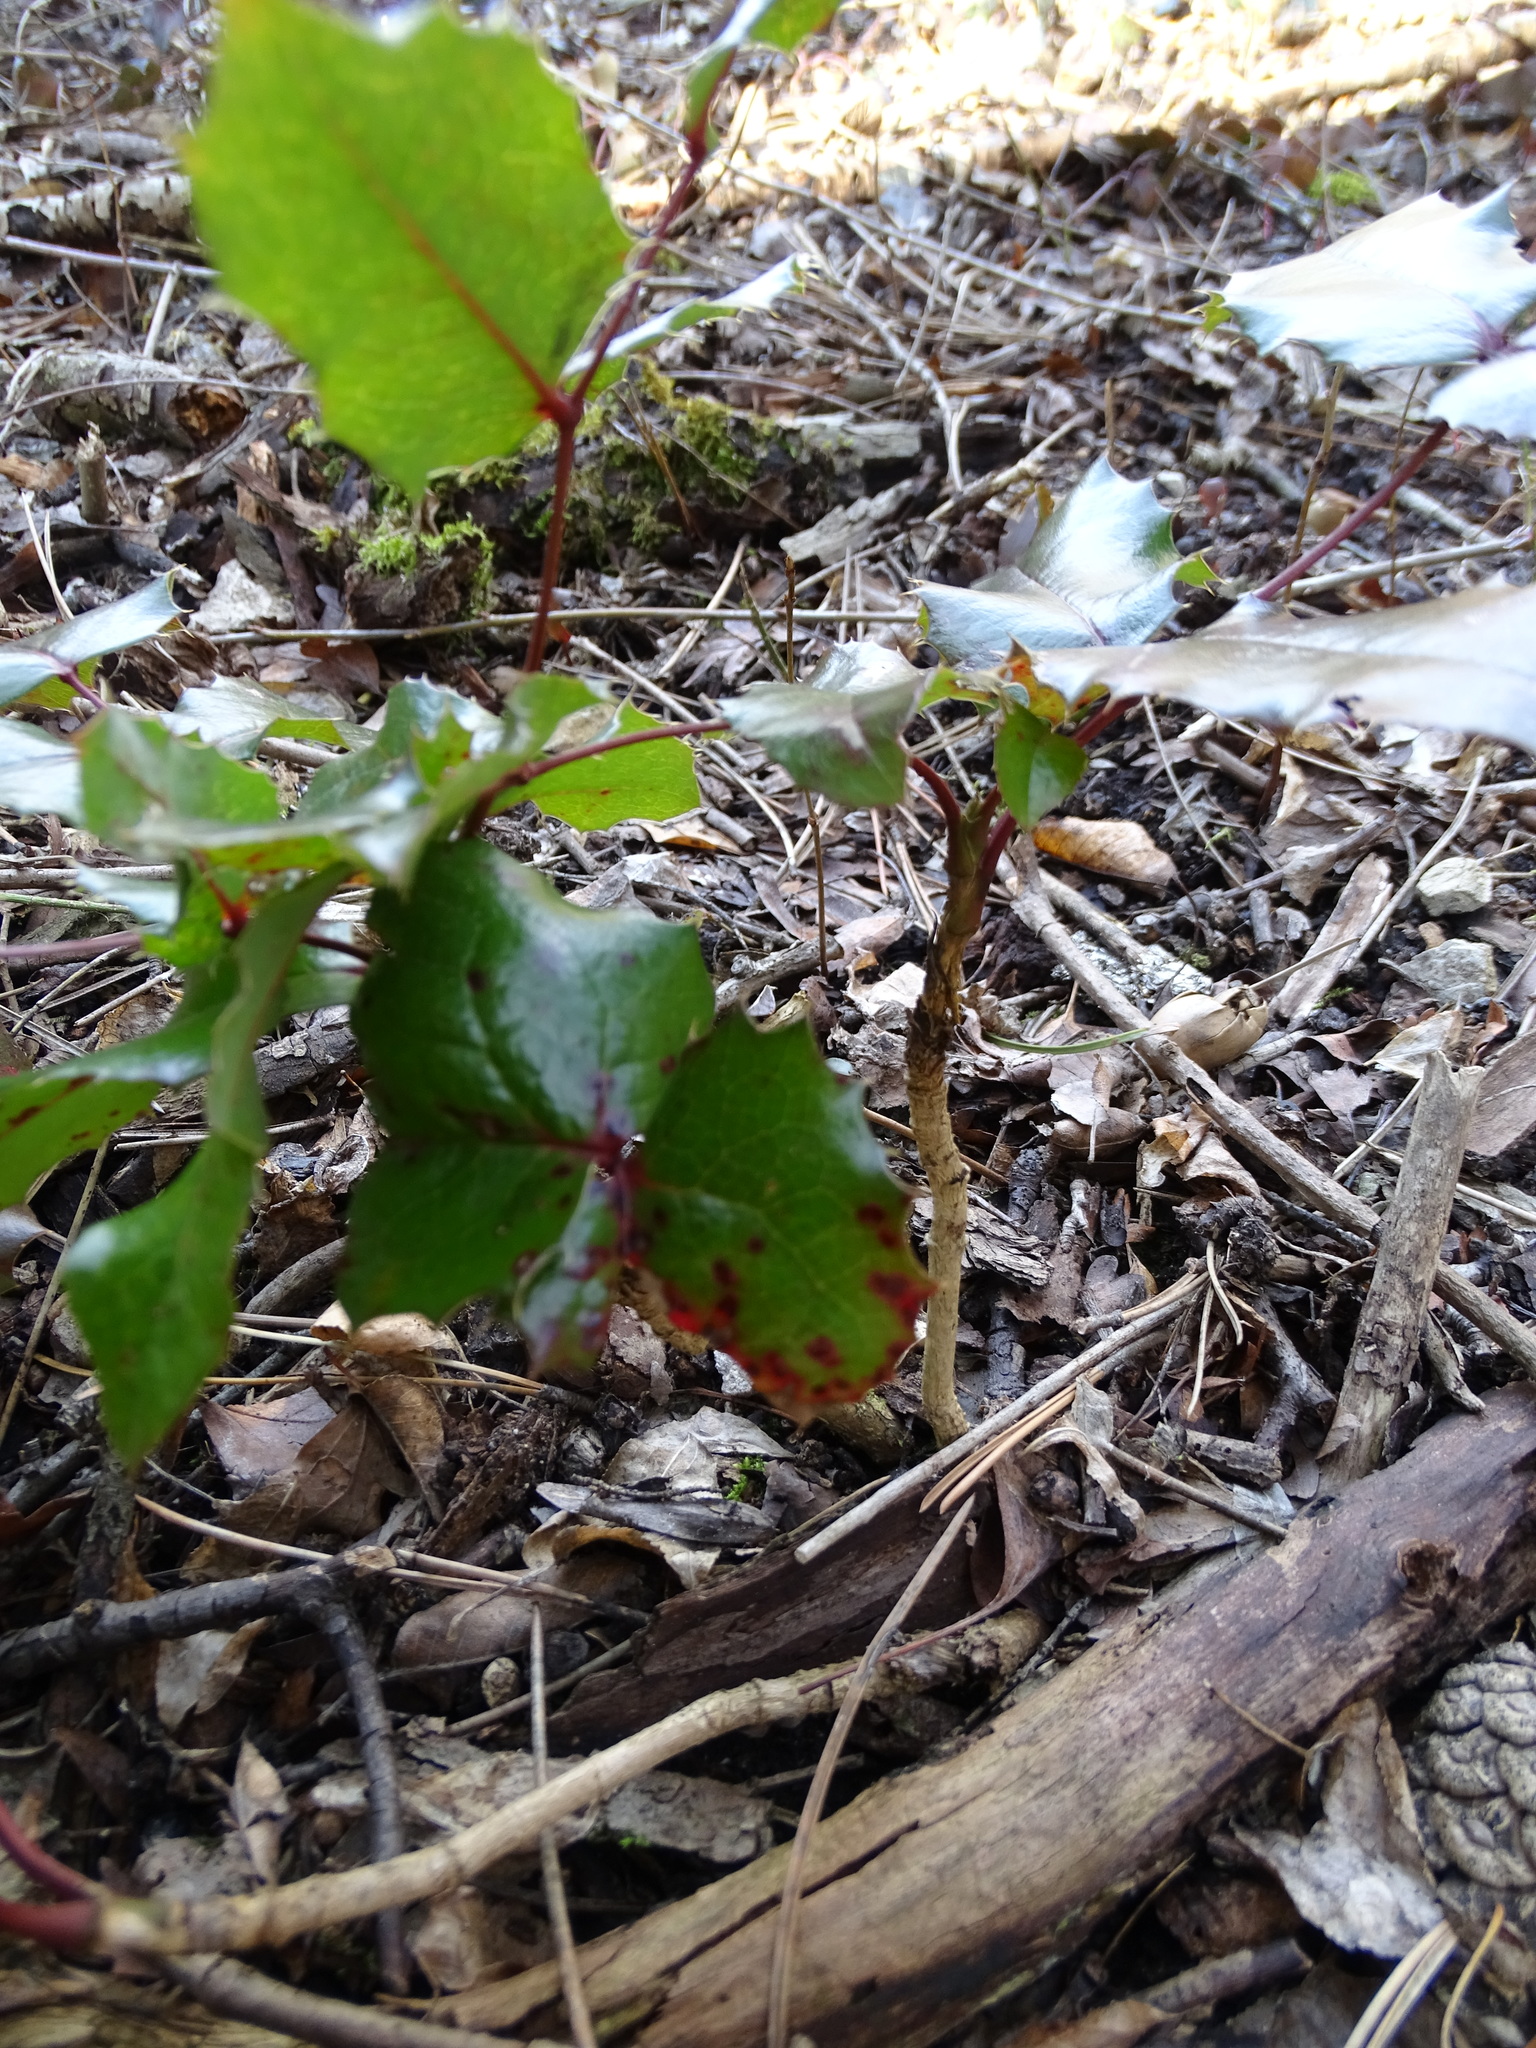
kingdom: Plantae
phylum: Tracheophyta
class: Magnoliopsida
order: Ranunculales
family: Berberidaceae
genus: Mahonia
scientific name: Mahonia aquifolium
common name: Oregon-grape
